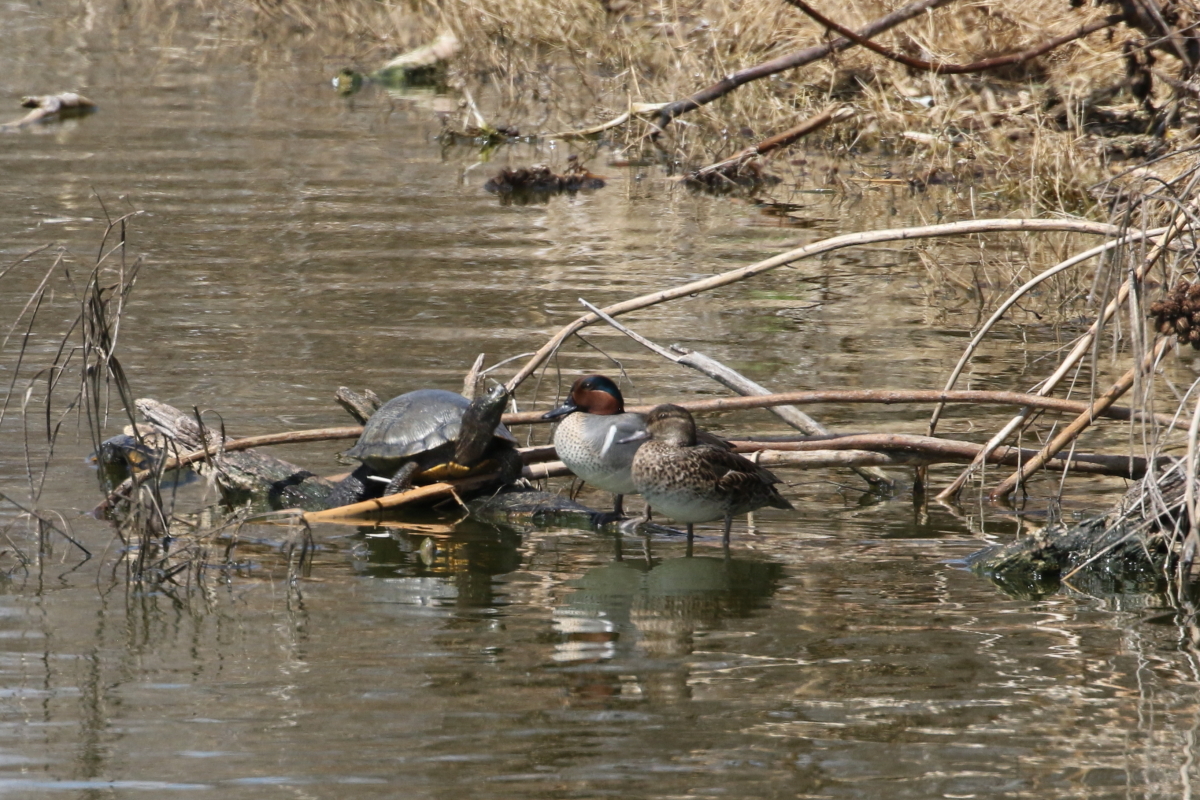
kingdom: Animalia
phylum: Chordata
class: Aves
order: Anseriformes
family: Anatidae
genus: Anas
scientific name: Anas crecca
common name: Eurasian teal
